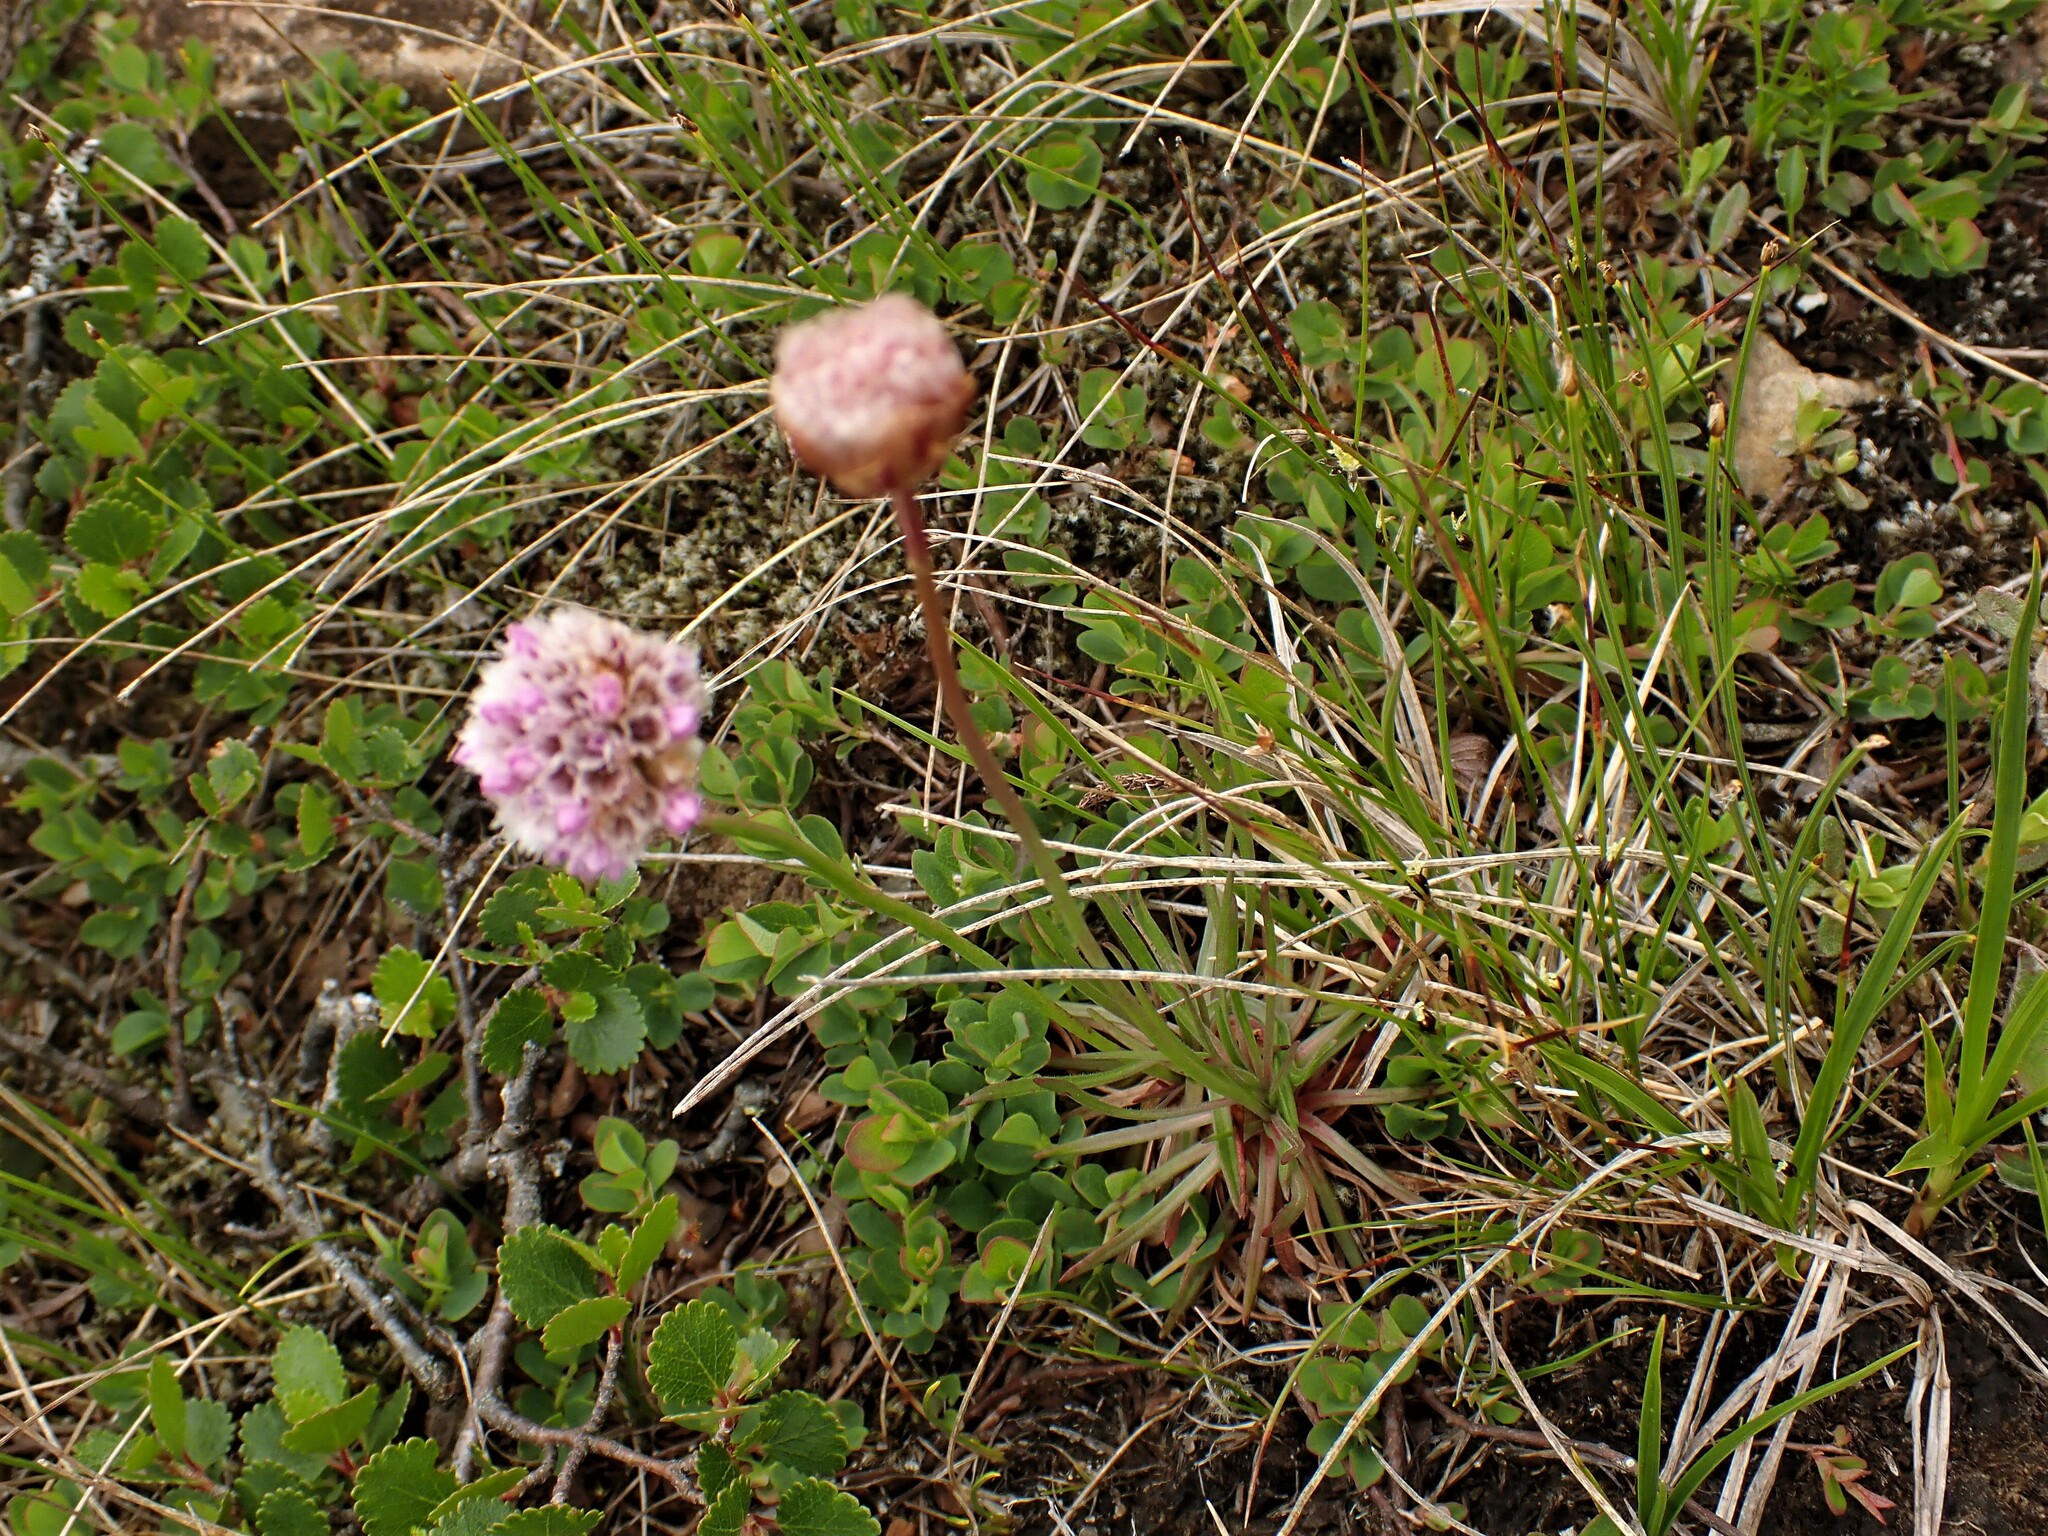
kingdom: Plantae
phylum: Tracheophyta
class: Magnoliopsida
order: Caryophyllales
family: Plumbaginaceae
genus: Armeria
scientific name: Armeria maritima
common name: Thrift
